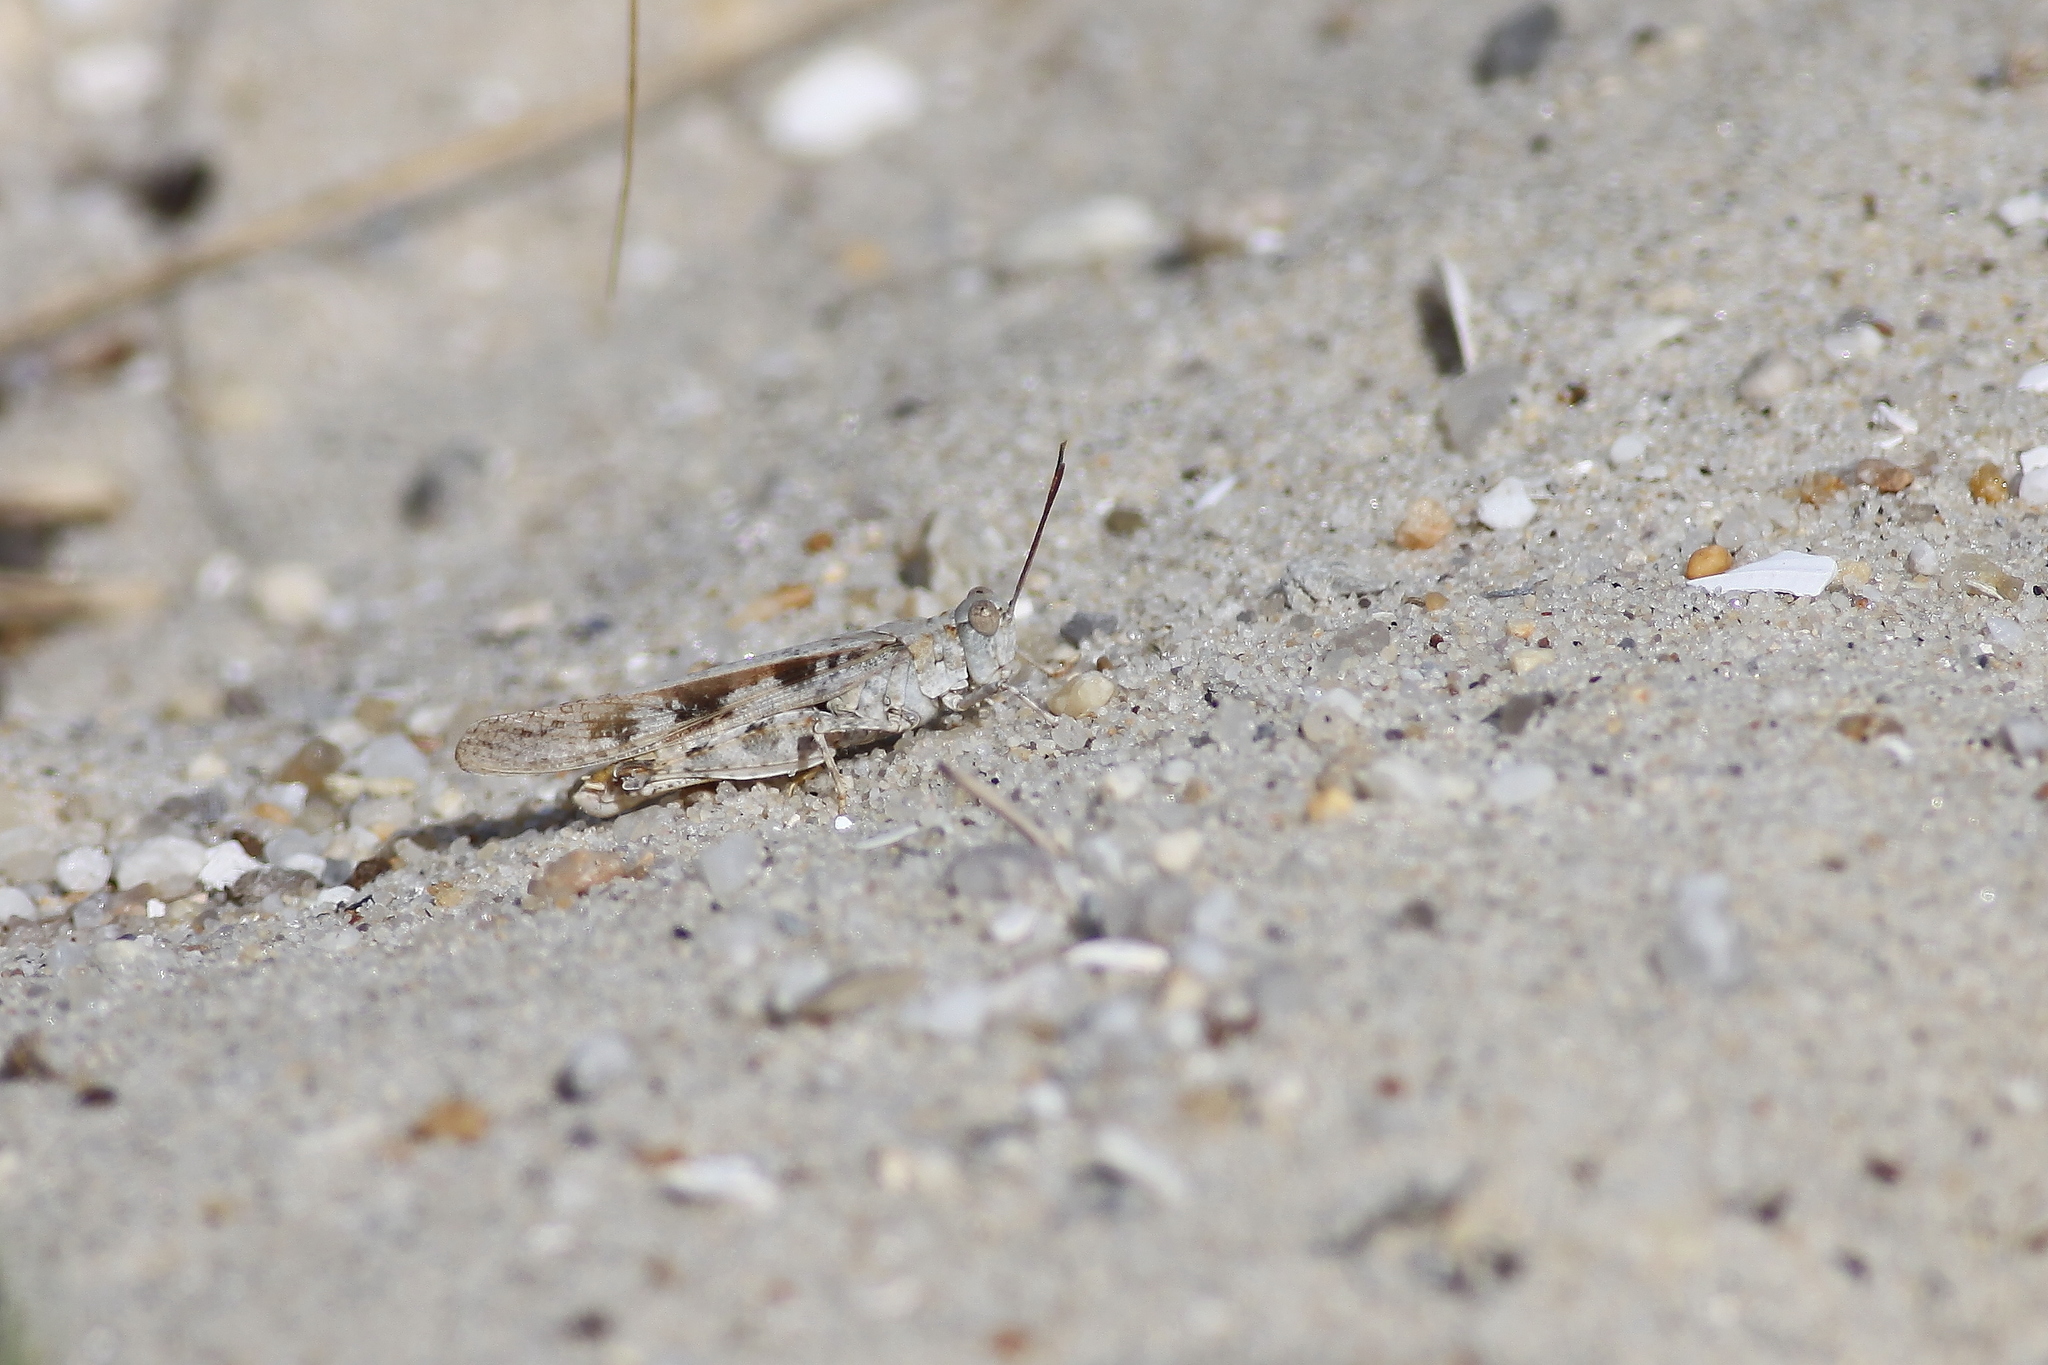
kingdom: Animalia
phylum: Arthropoda
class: Insecta
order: Orthoptera
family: Acrididae
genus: Trimerotropis
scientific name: Trimerotropis maritima
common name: Seaside locust
